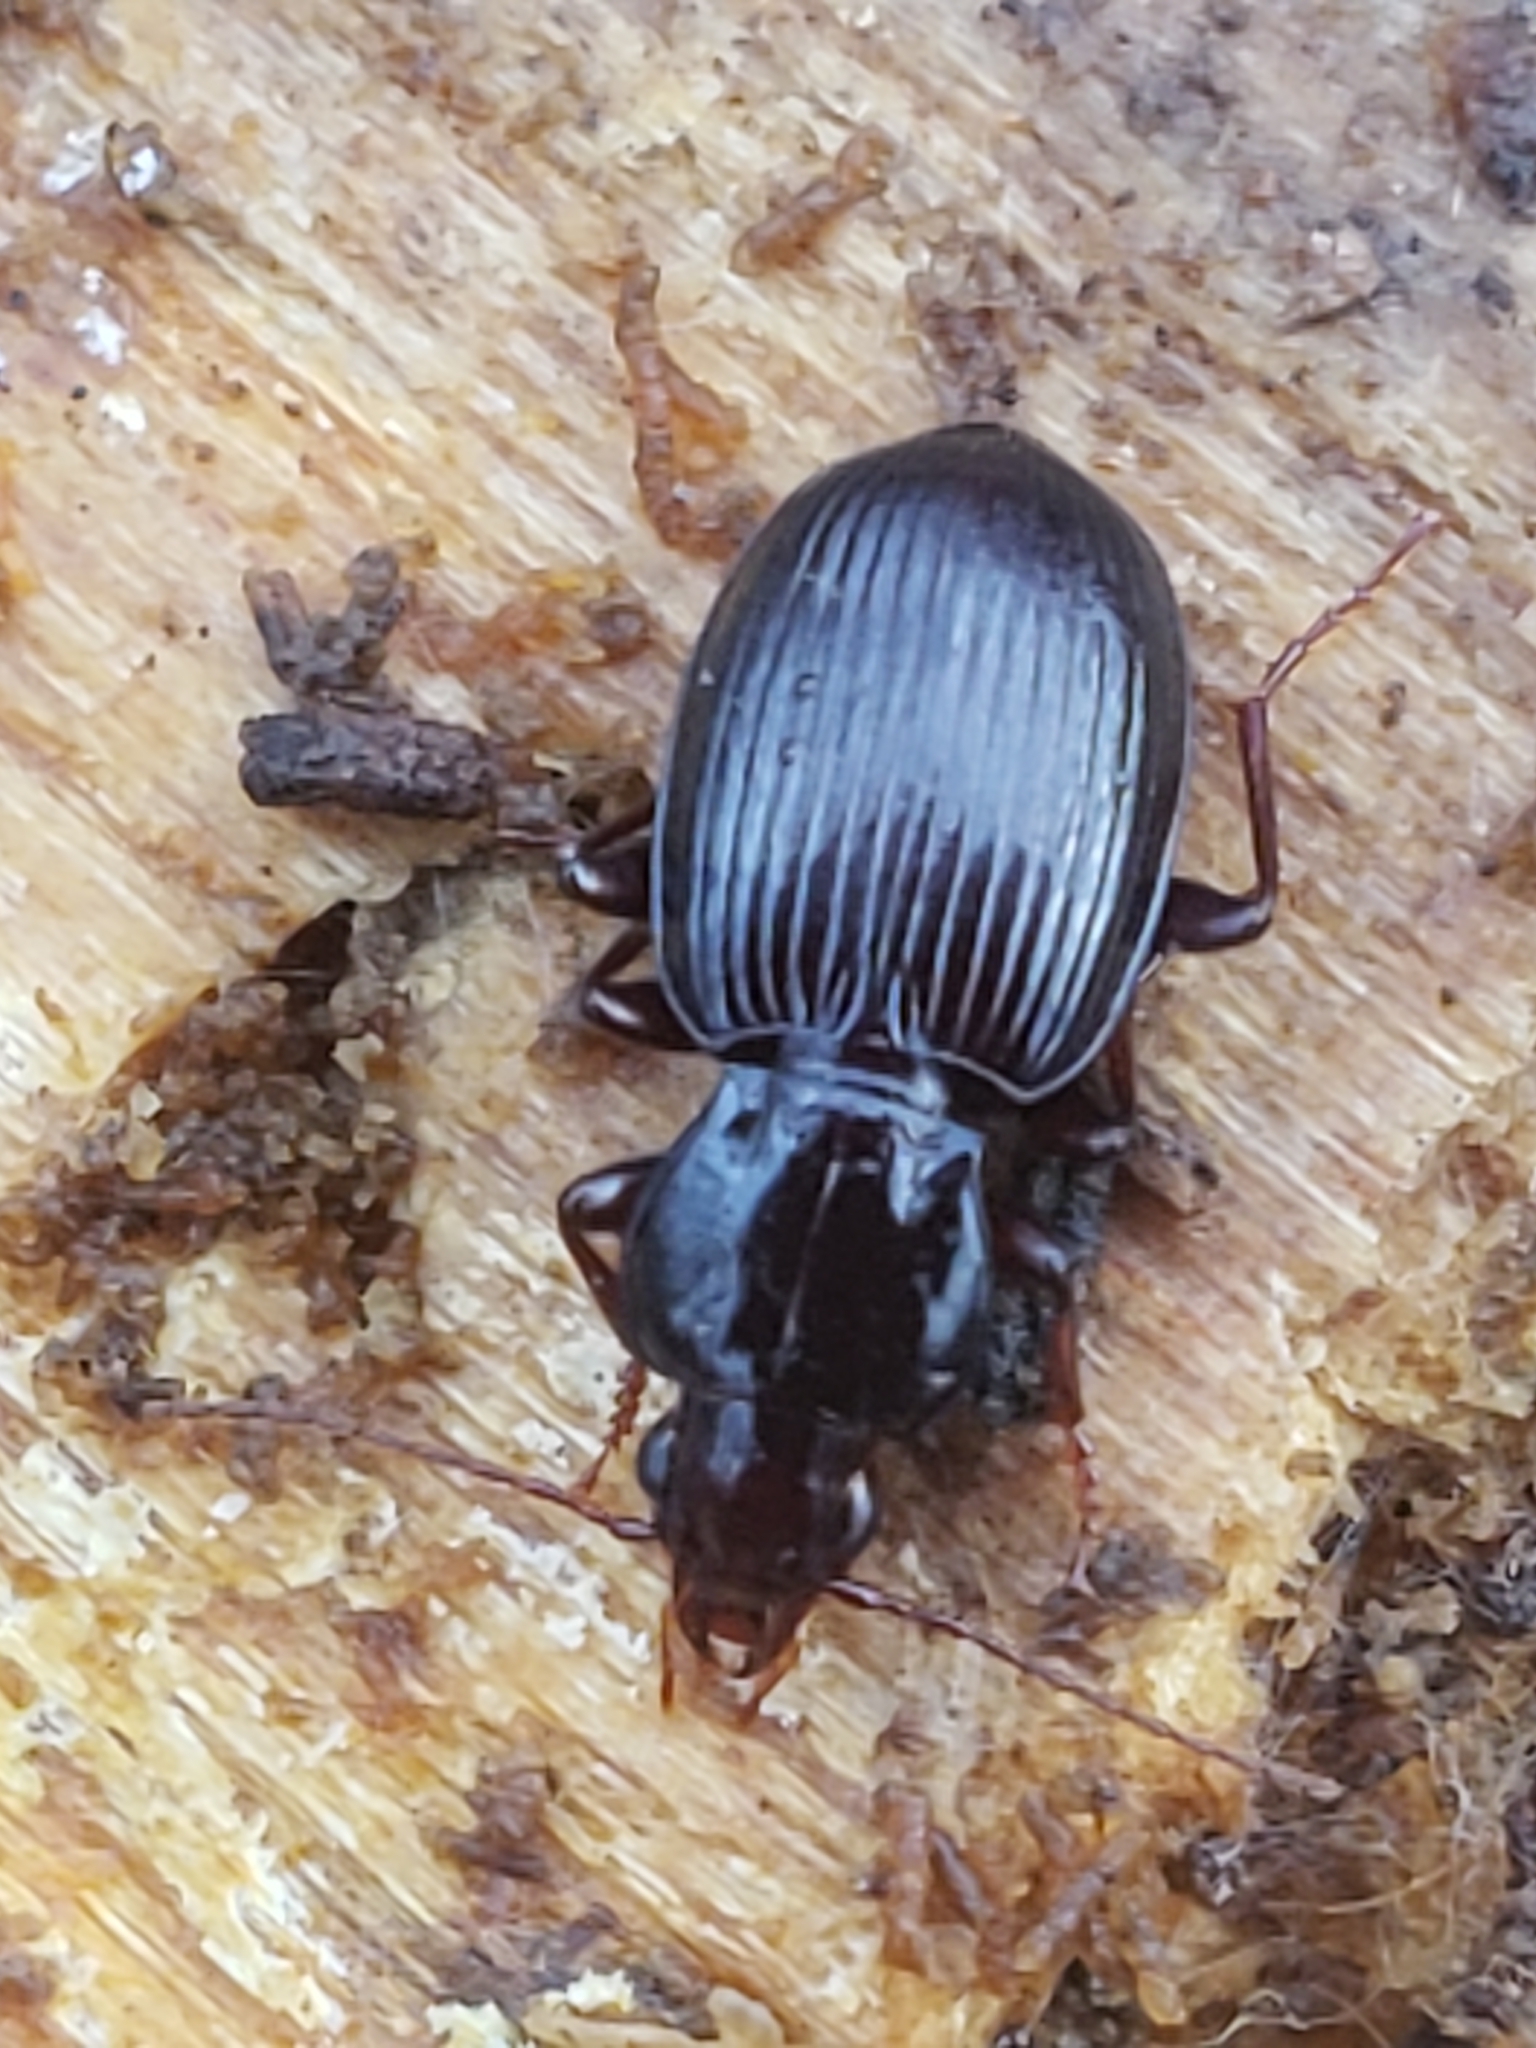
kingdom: Animalia
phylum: Arthropoda
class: Insecta
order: Coleoptera
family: Carabidae
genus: Gastrellarius
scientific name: Gastrellarius honestus
